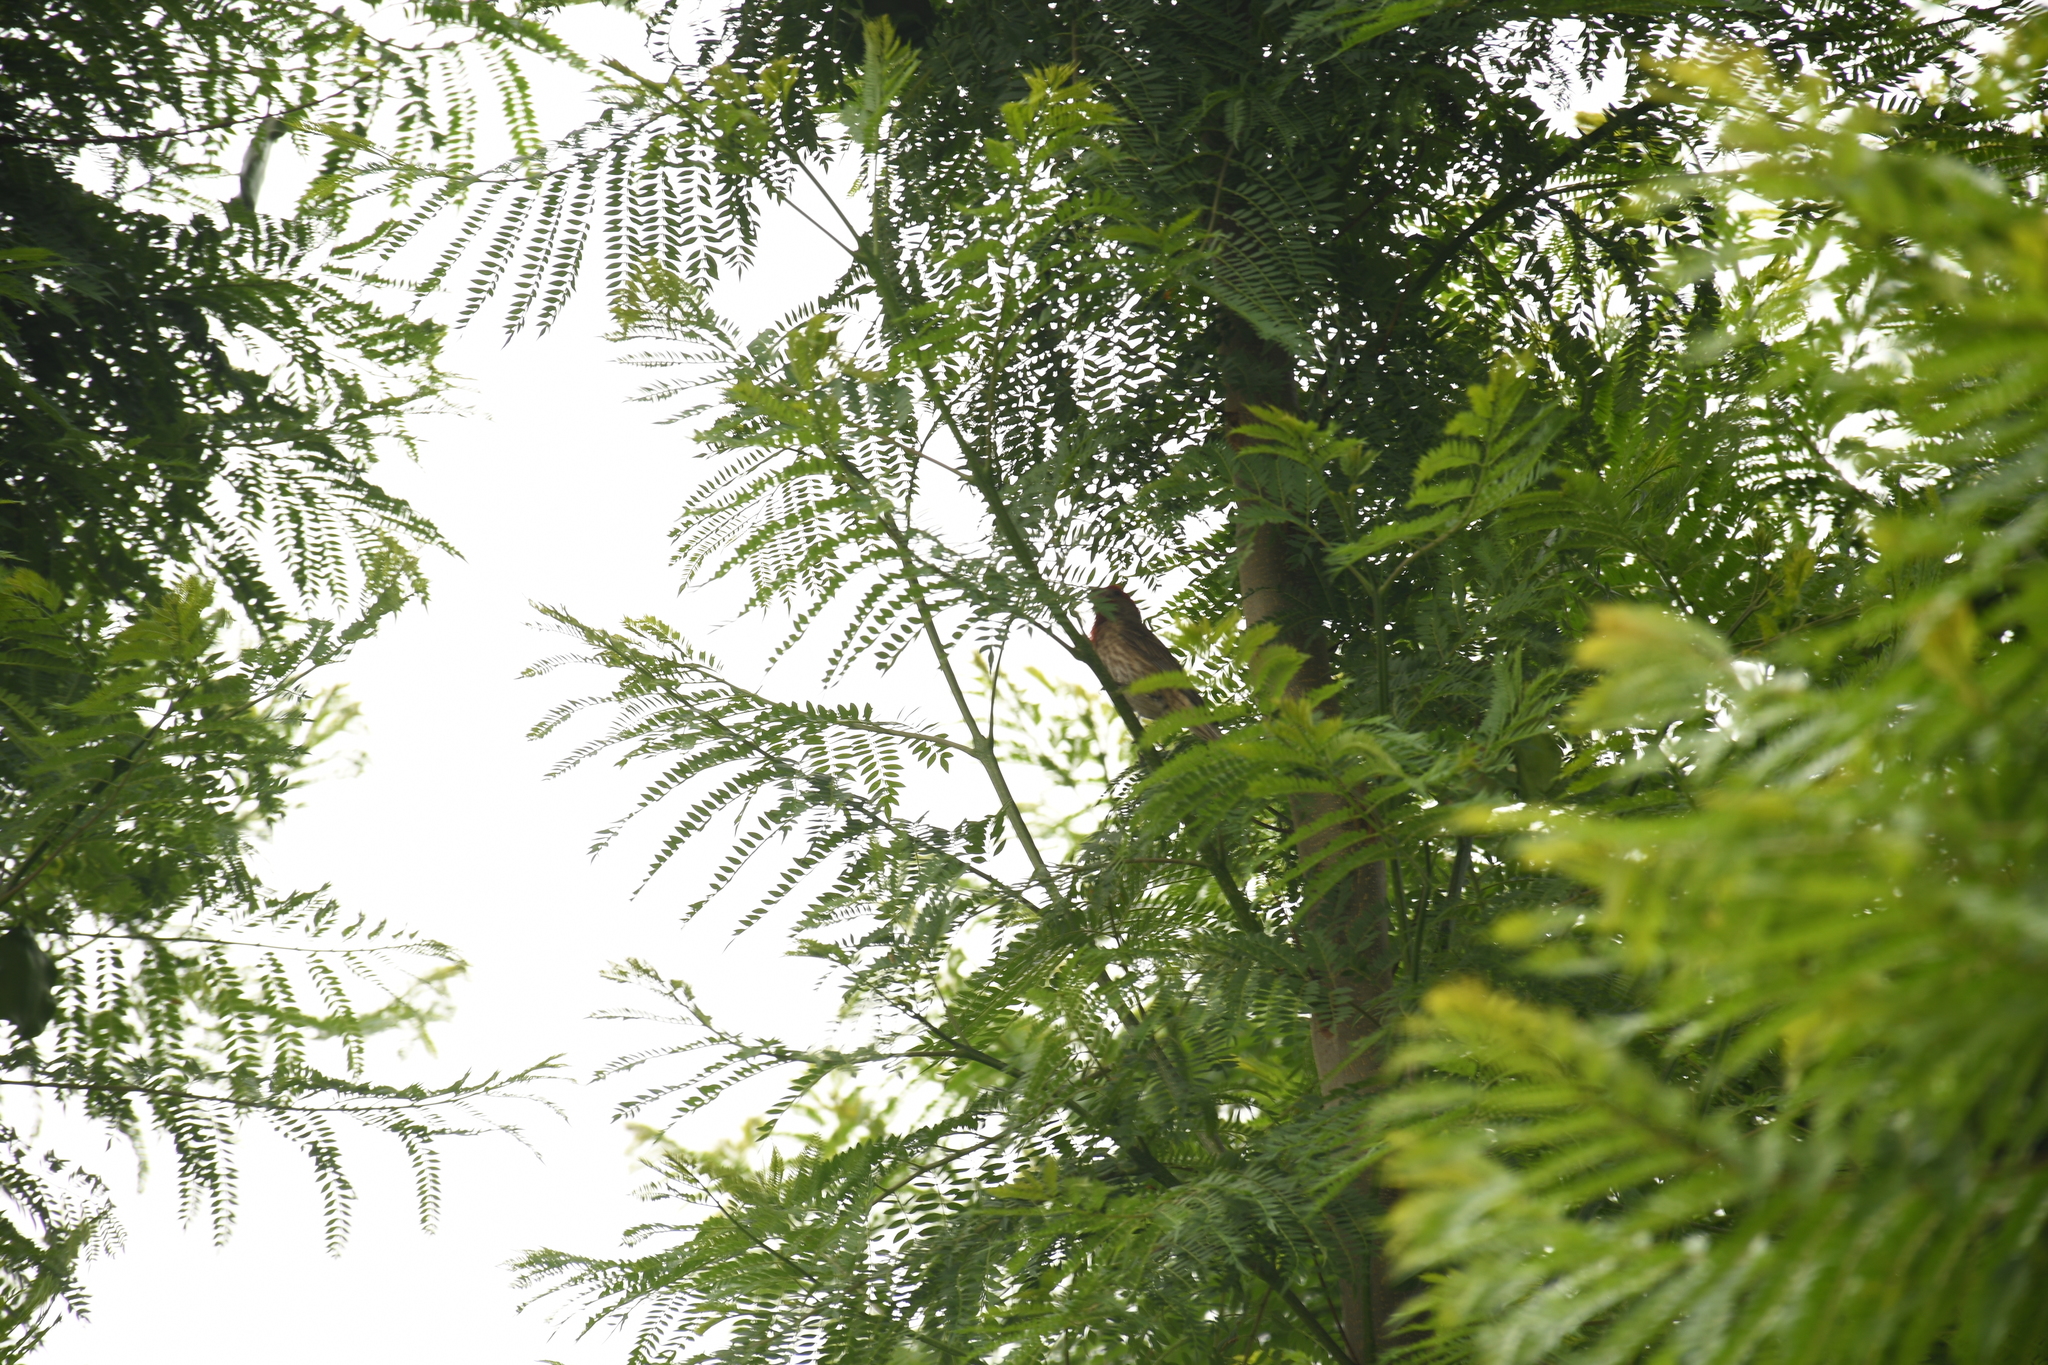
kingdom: Animalia
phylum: Chordata
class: Aves
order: Passeriformes
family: Fringillidae
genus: Haemorhous
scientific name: Haemorhous mexicanus
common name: House finch
